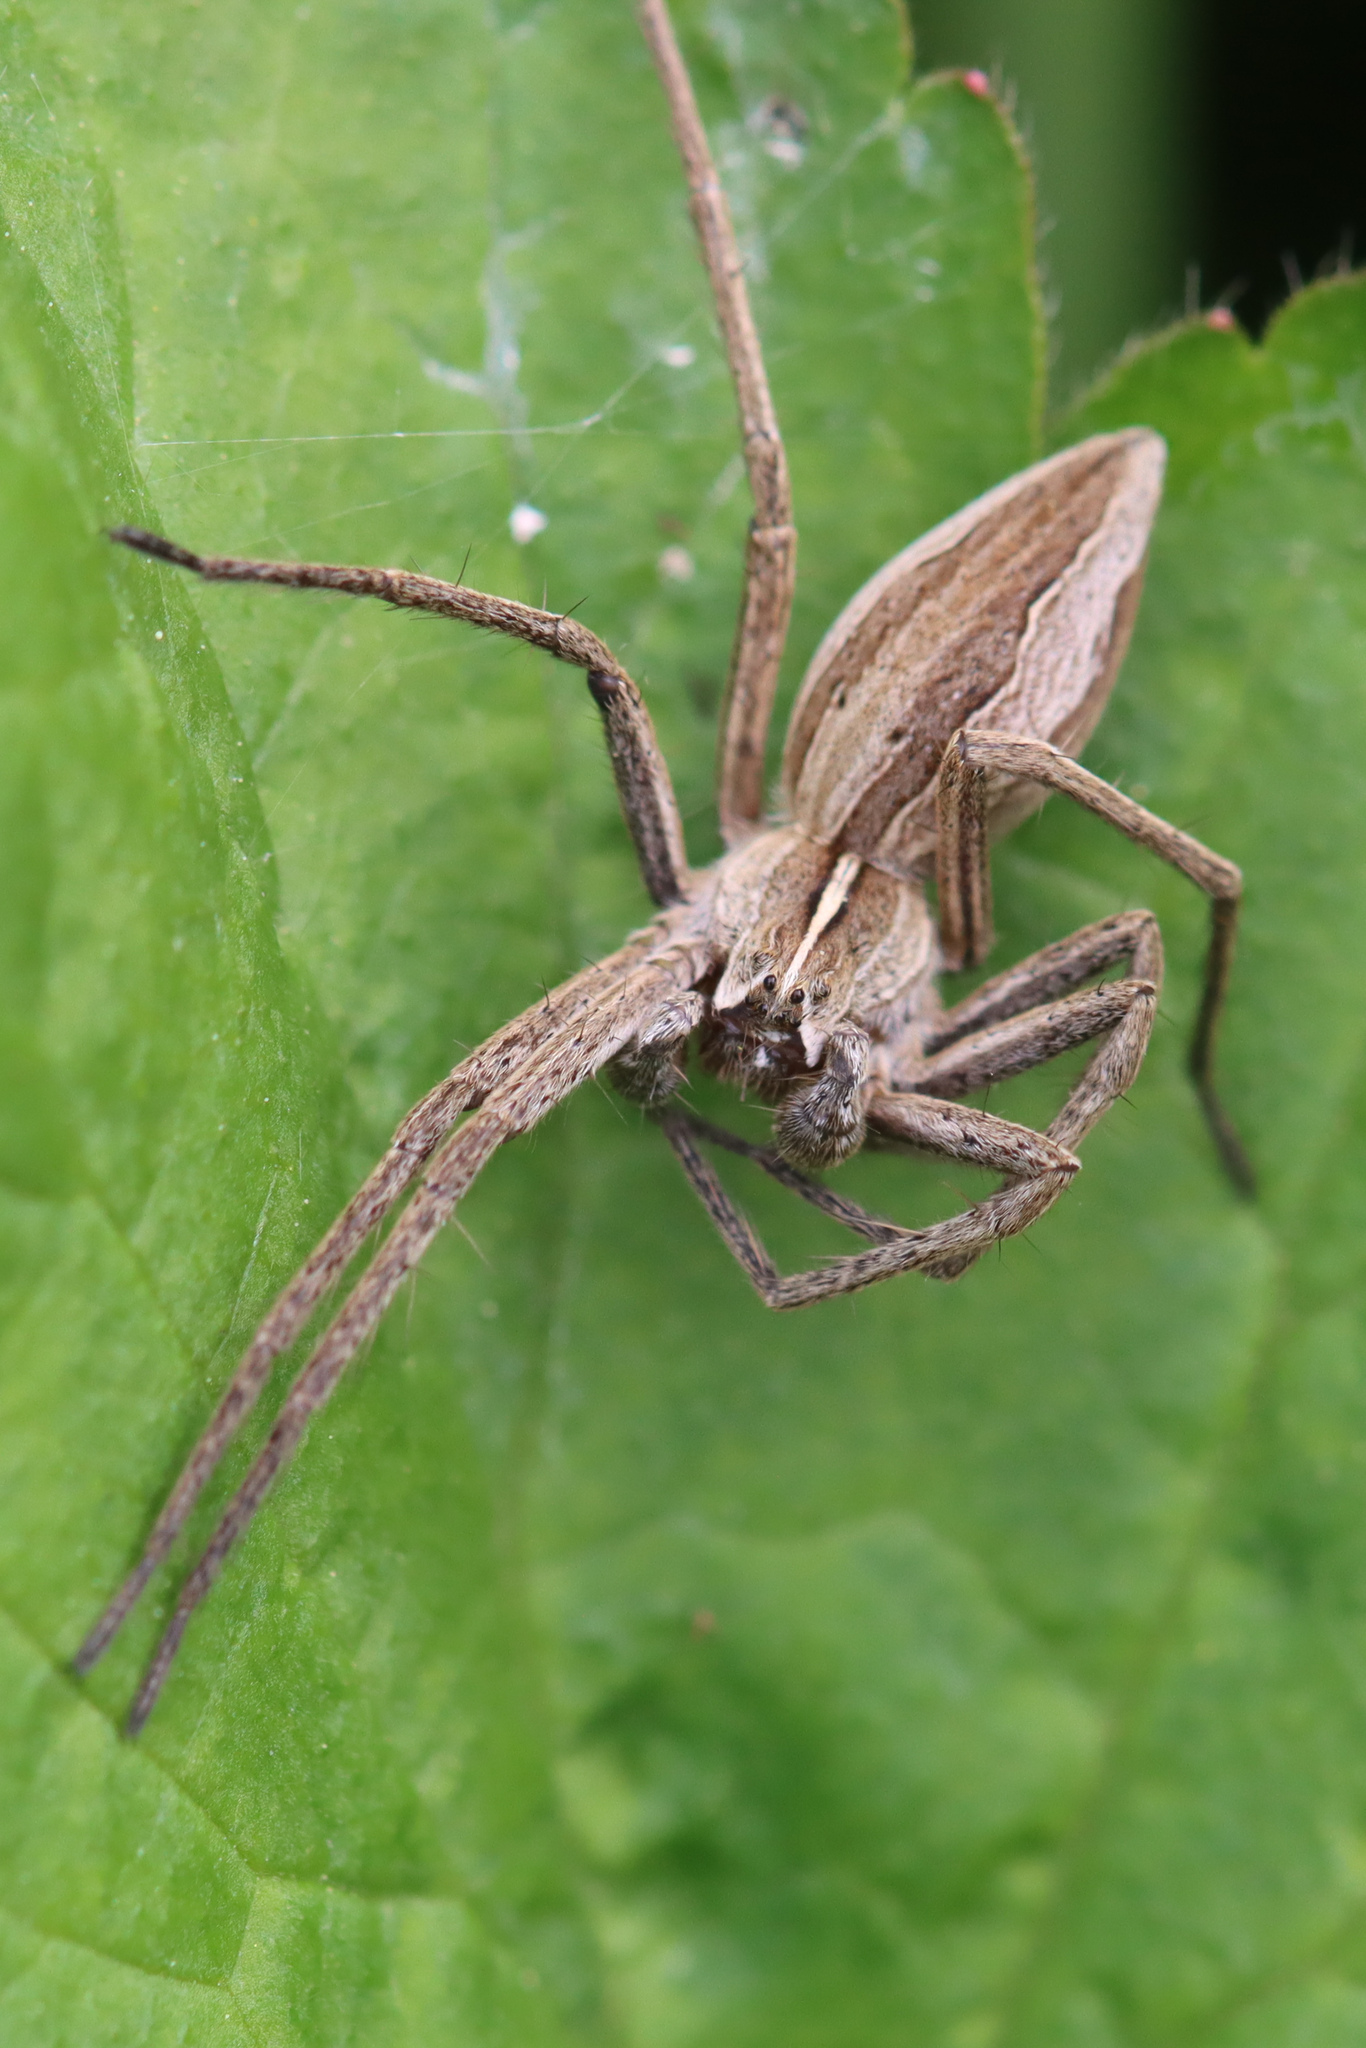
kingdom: Animalia
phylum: Arthropoda
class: Arachnida
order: Araneae
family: Pisauridae
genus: Pisaura
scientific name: Pisaura mirabilis
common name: Tent spider
